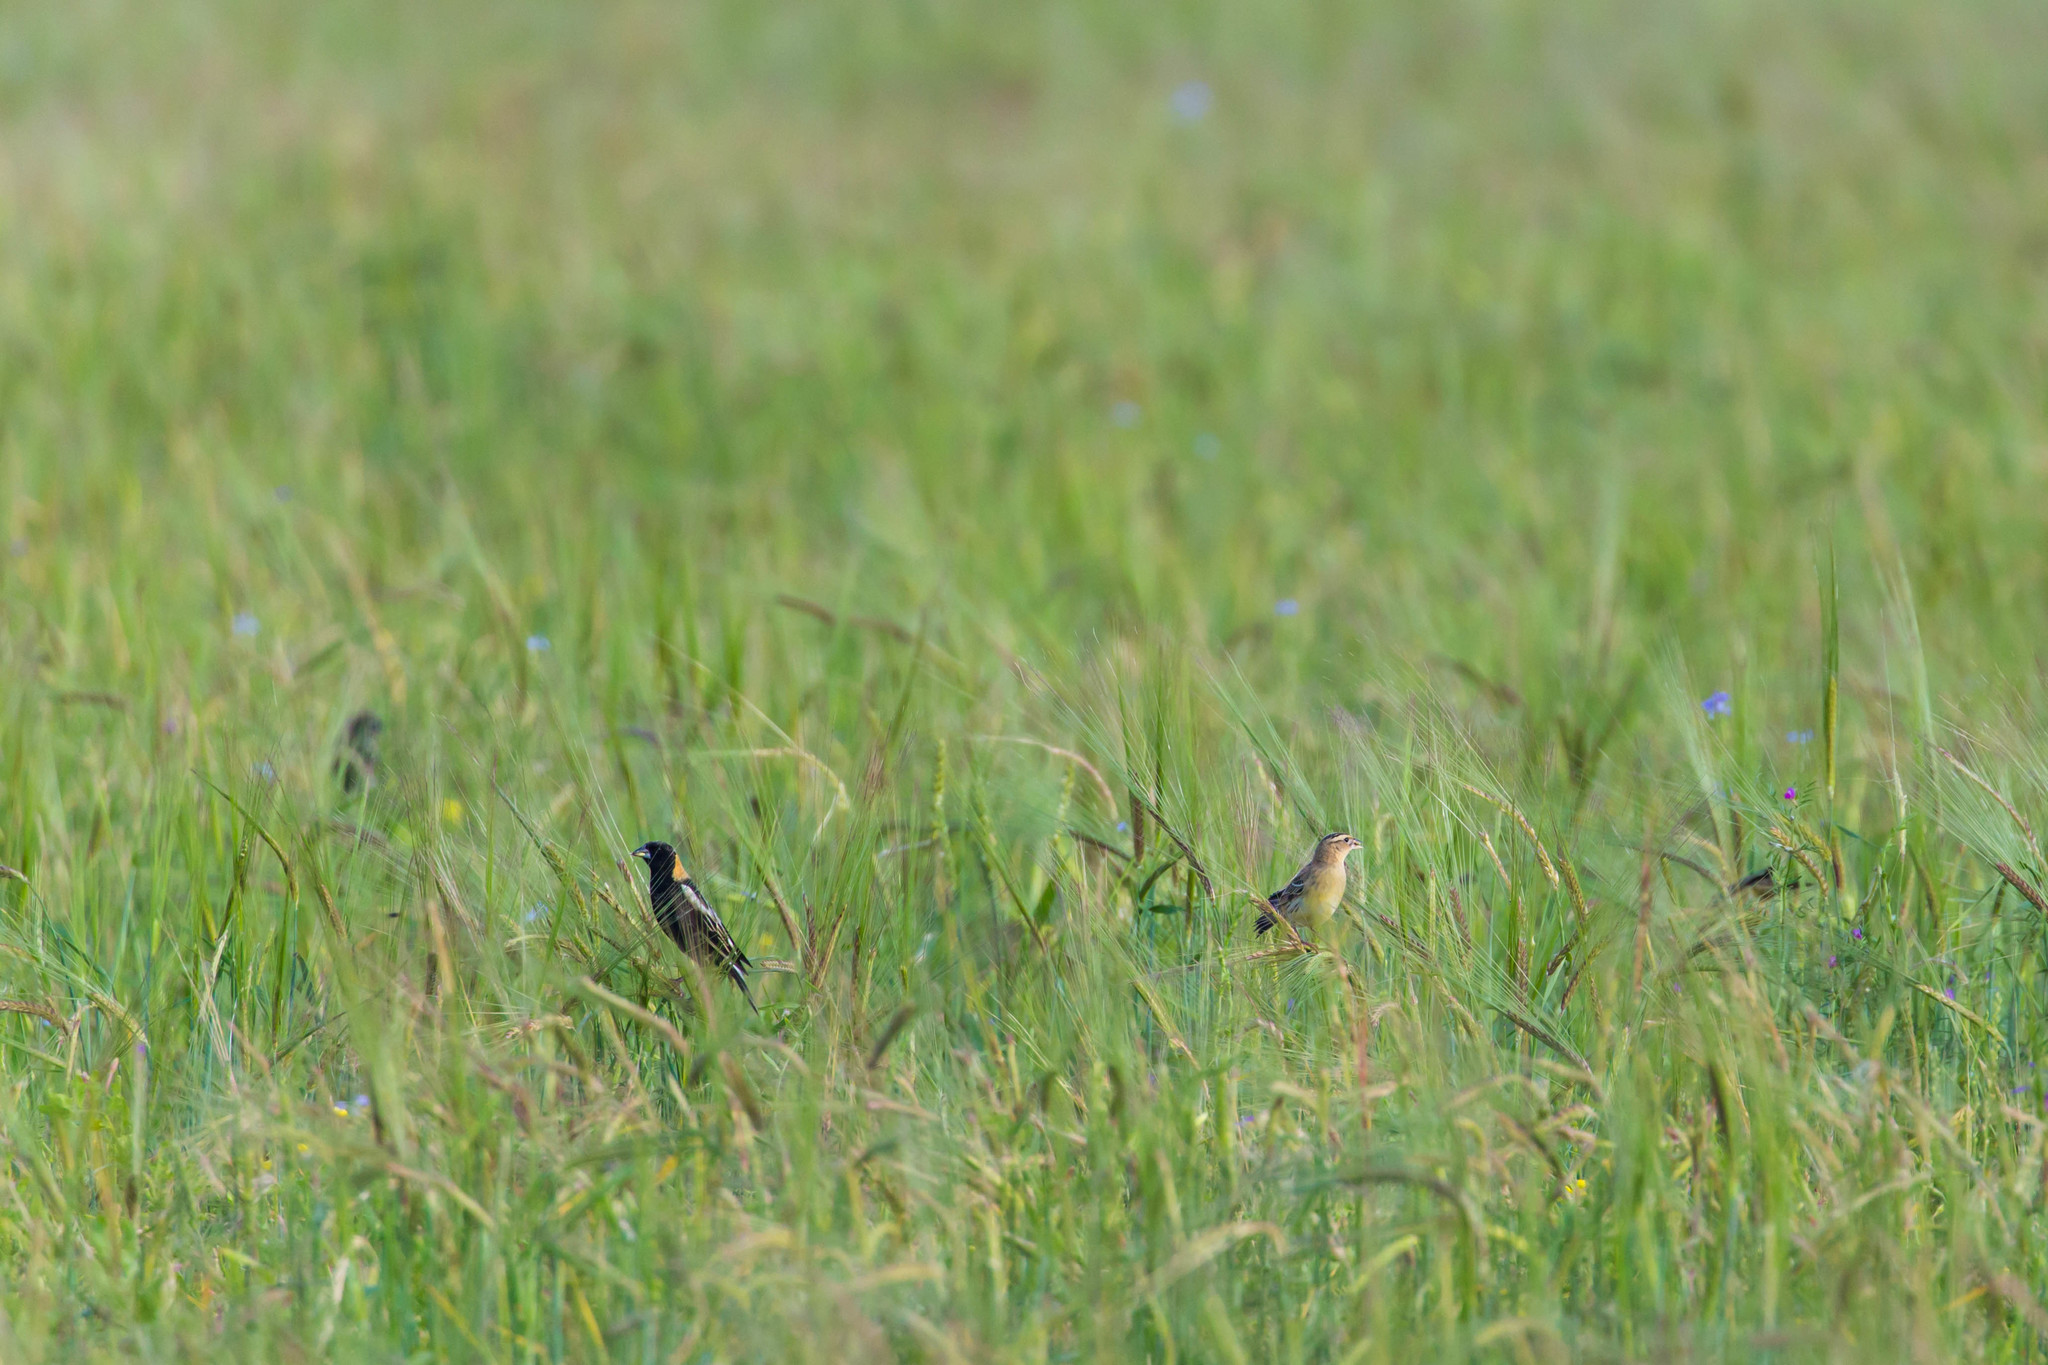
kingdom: Animalia
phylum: Chordata
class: Aves
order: Passeriformes
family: Icteridae
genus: Dolichonyx
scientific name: Dolichonyx oryzivorus
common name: Bobolink
